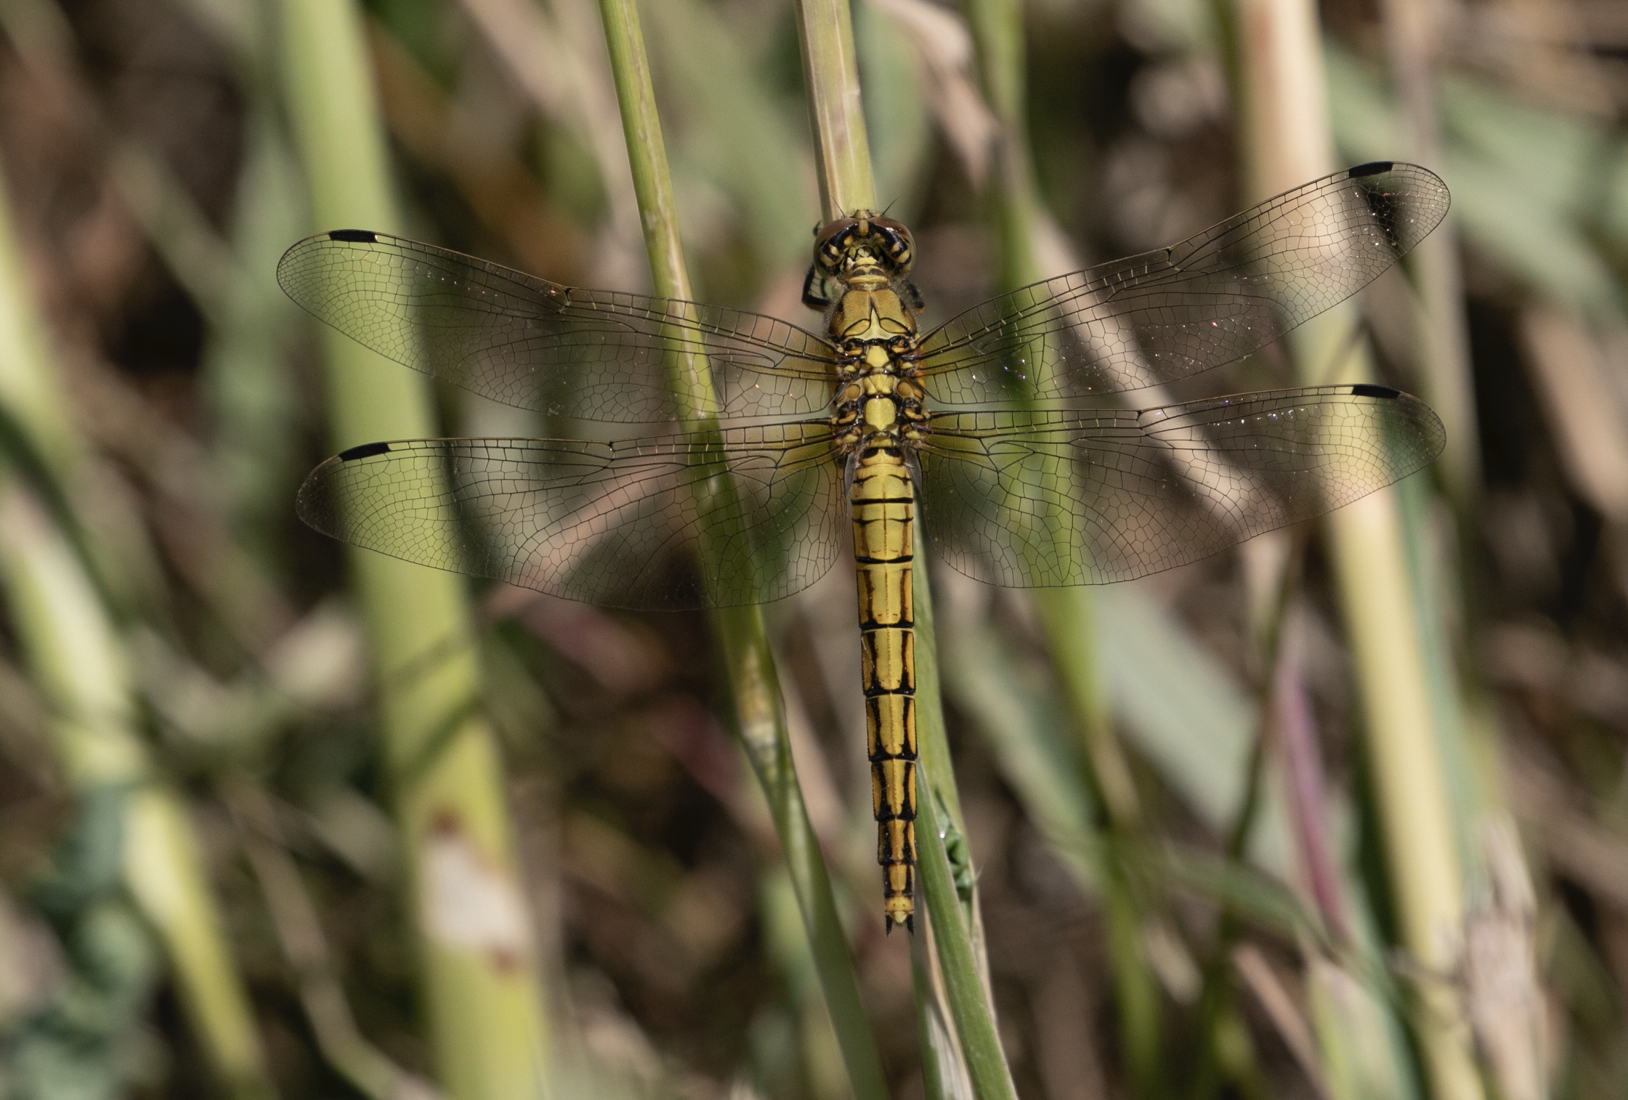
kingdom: Animalia
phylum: Arthropoda
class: Insecta
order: Odonata
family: Libellulidae
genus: Orthetrum
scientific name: Orthetrum cancellatum
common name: Black-tailed skimmer
